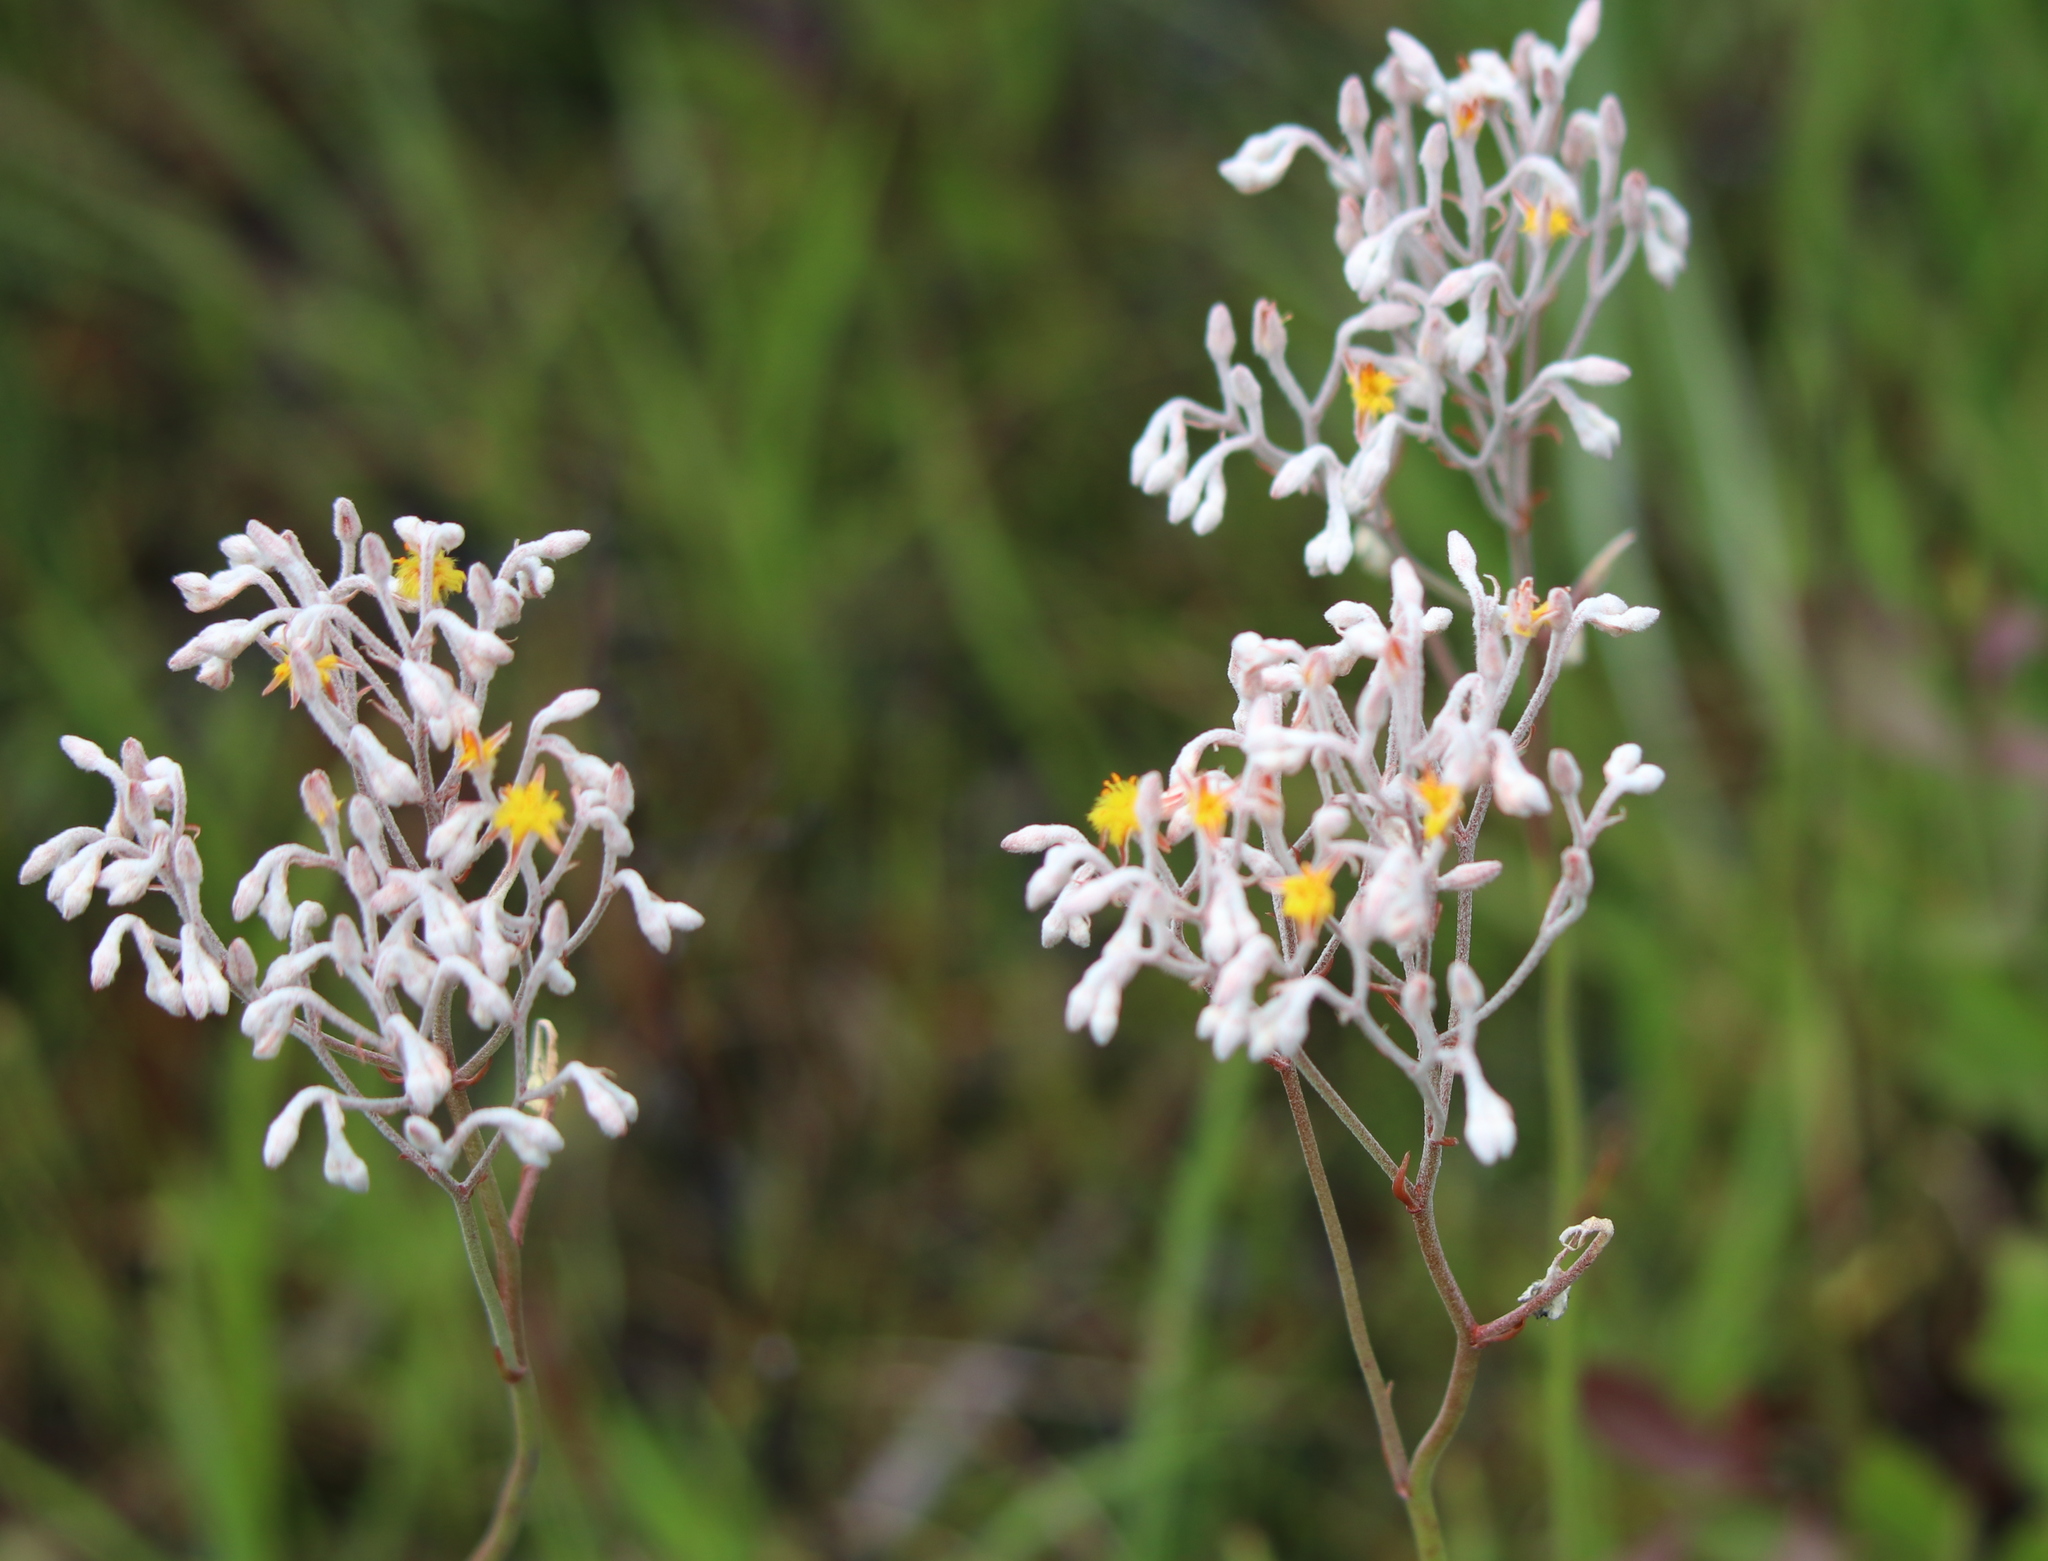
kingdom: Plantae
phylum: Tracheophyta
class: Liliopsida
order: Dioscoreales
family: Nartheciaceae
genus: Lophiola
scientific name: Lophiola aurea
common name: Golden-crest
